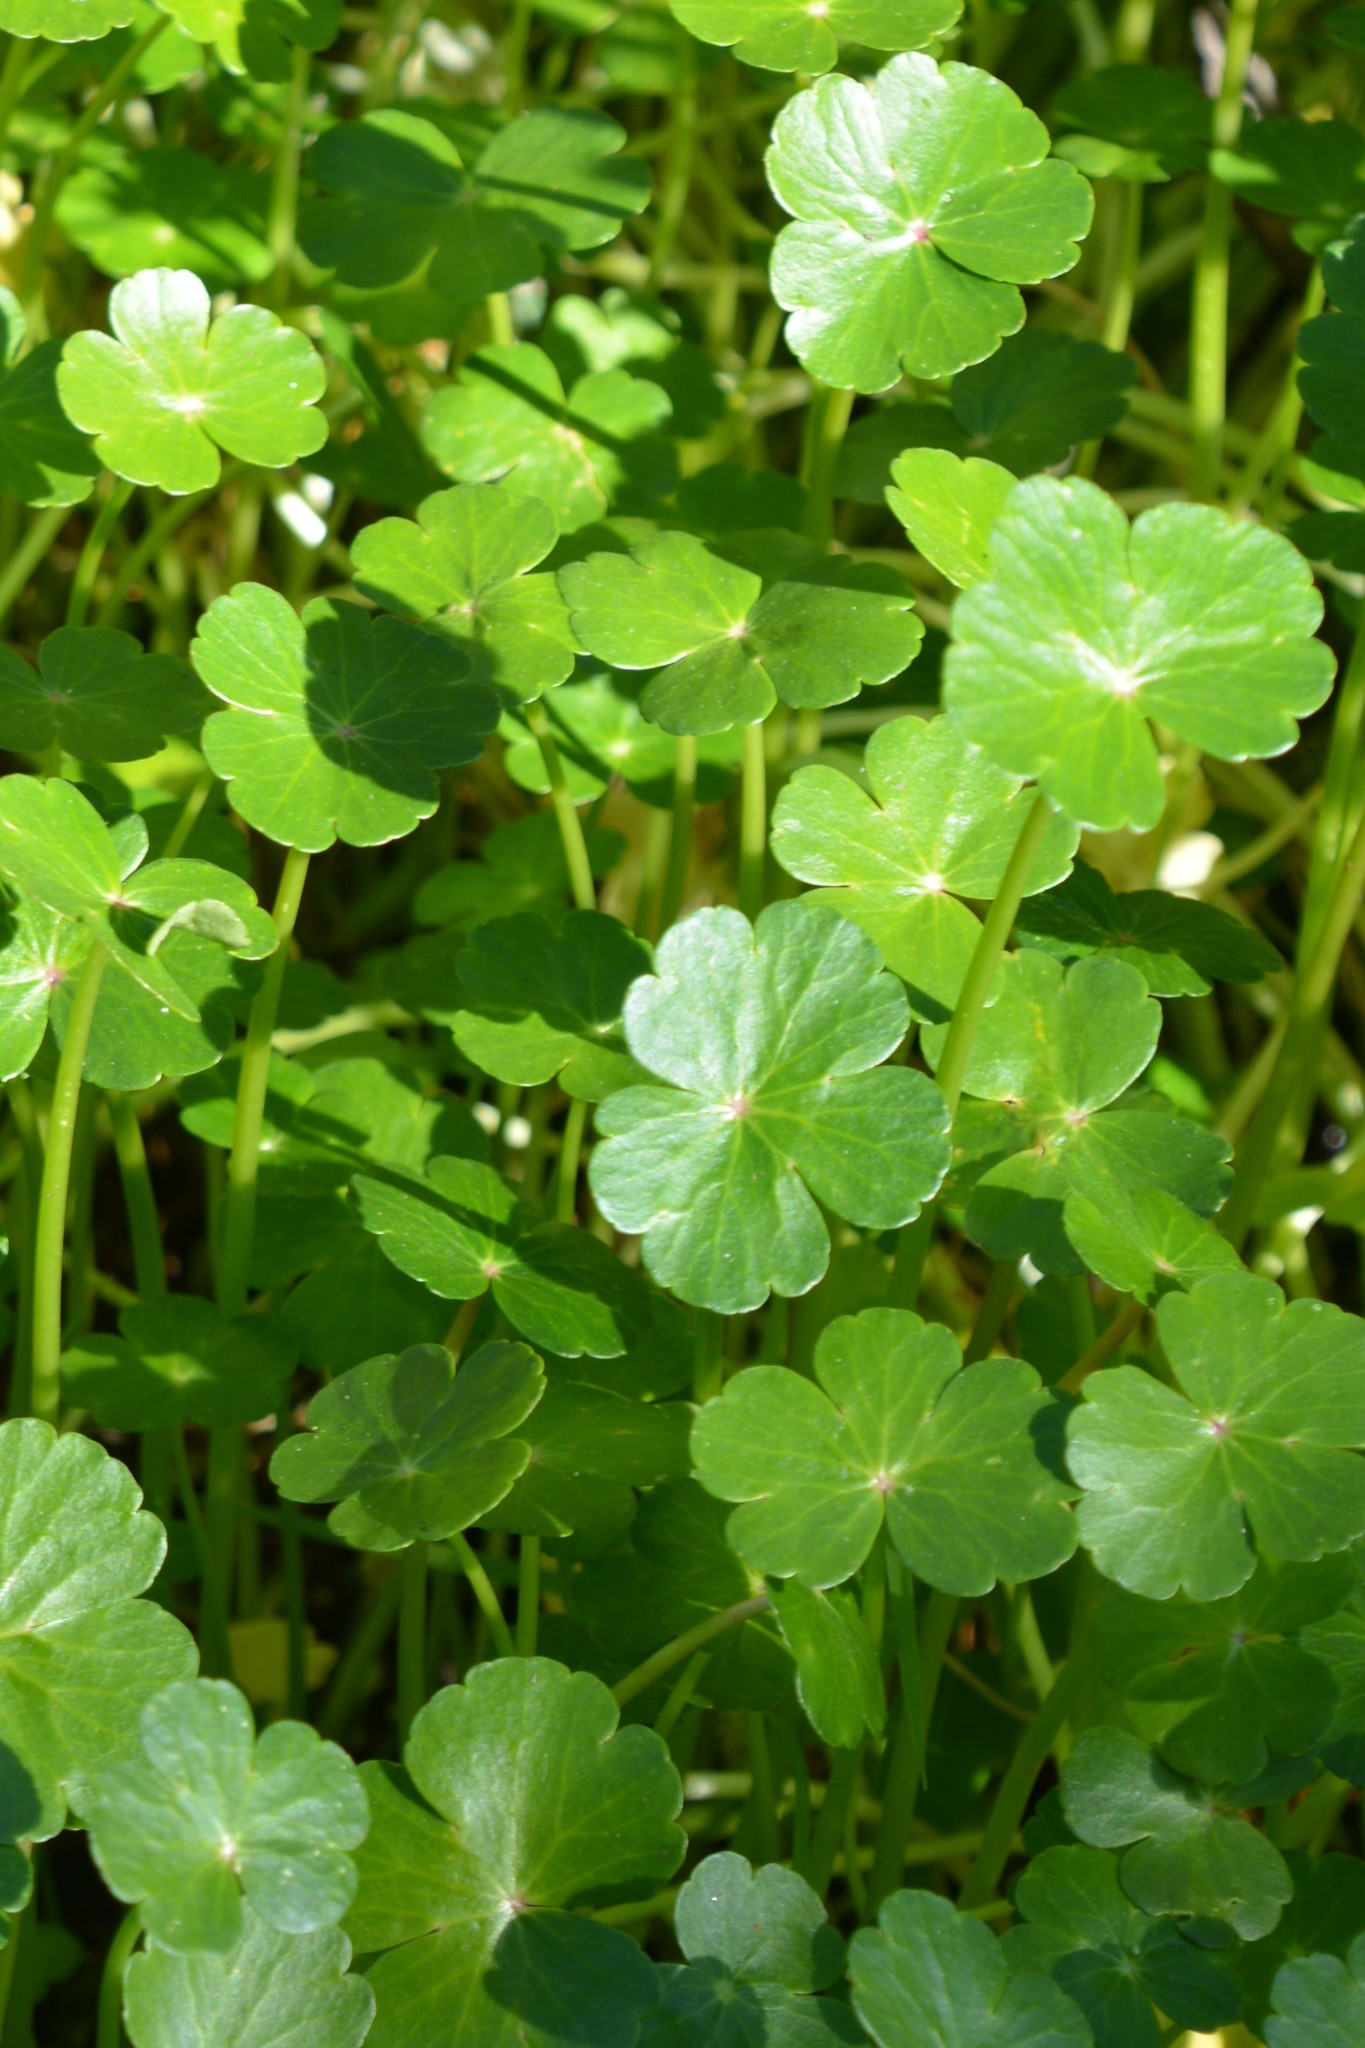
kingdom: Plantae
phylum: Tracheophyta
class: Magnoliopsida
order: Apiales
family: Araliaceae
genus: Hydrocotyle
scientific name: Hydrocotyle ranunculoides
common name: Floating pennywort
